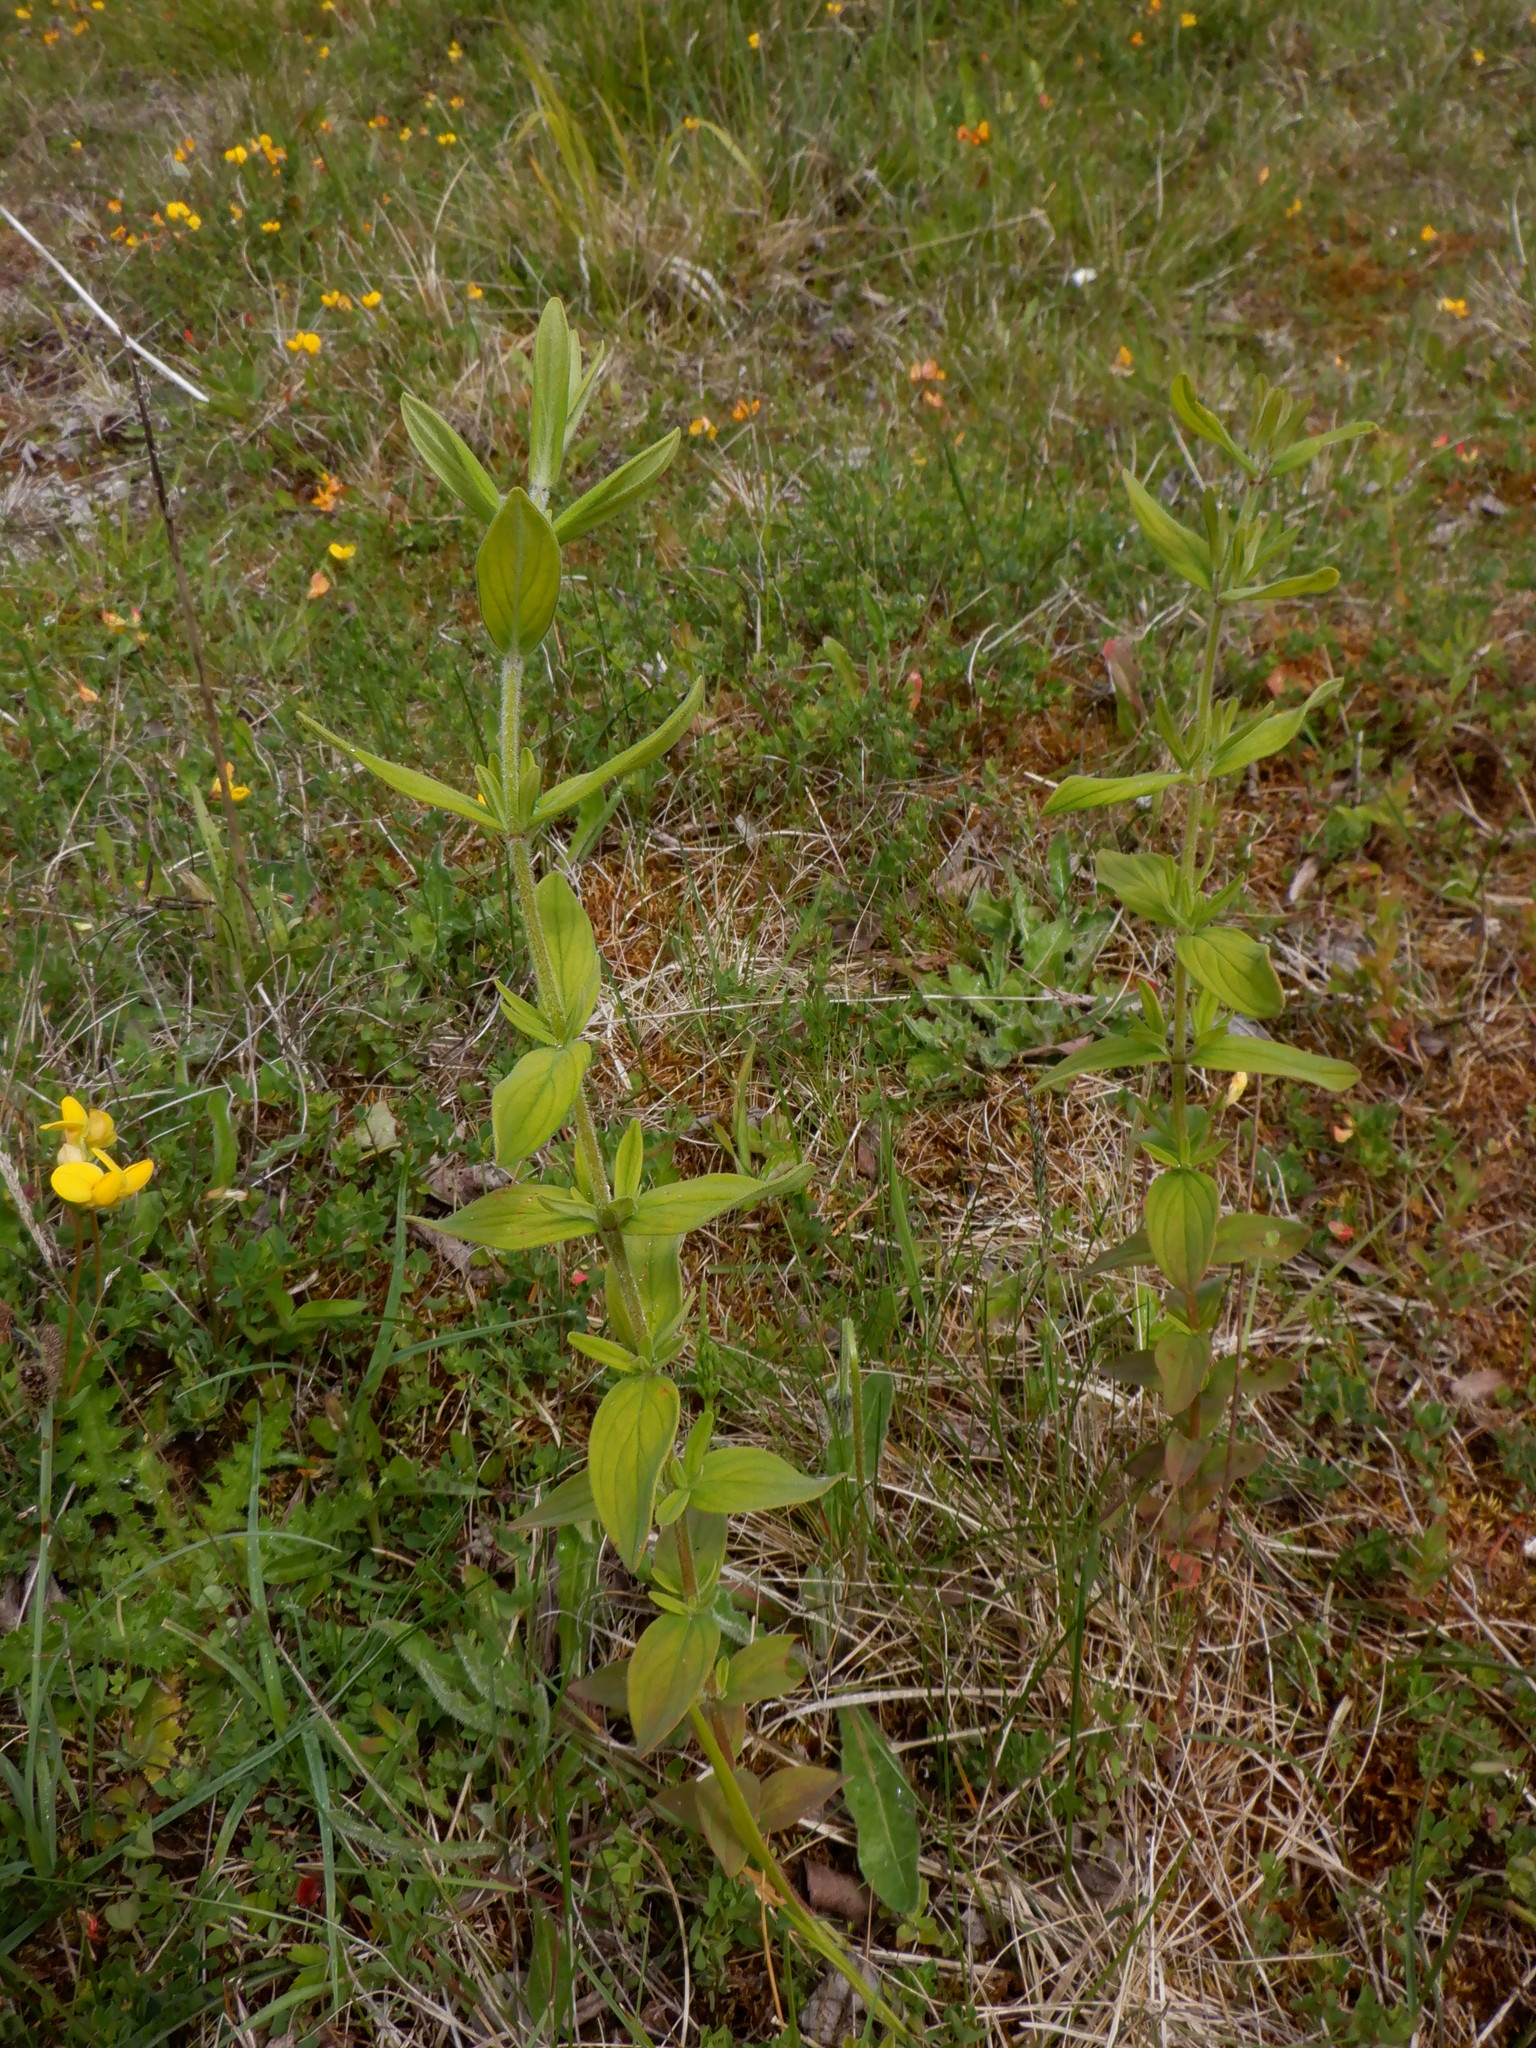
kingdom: Plantae
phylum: Tracheophyta
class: Magnoliopsida
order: Malpighiales
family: Hypericaceae
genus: Hypericum
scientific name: Hypericum hirsutum
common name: Hairy st. john's-wort
